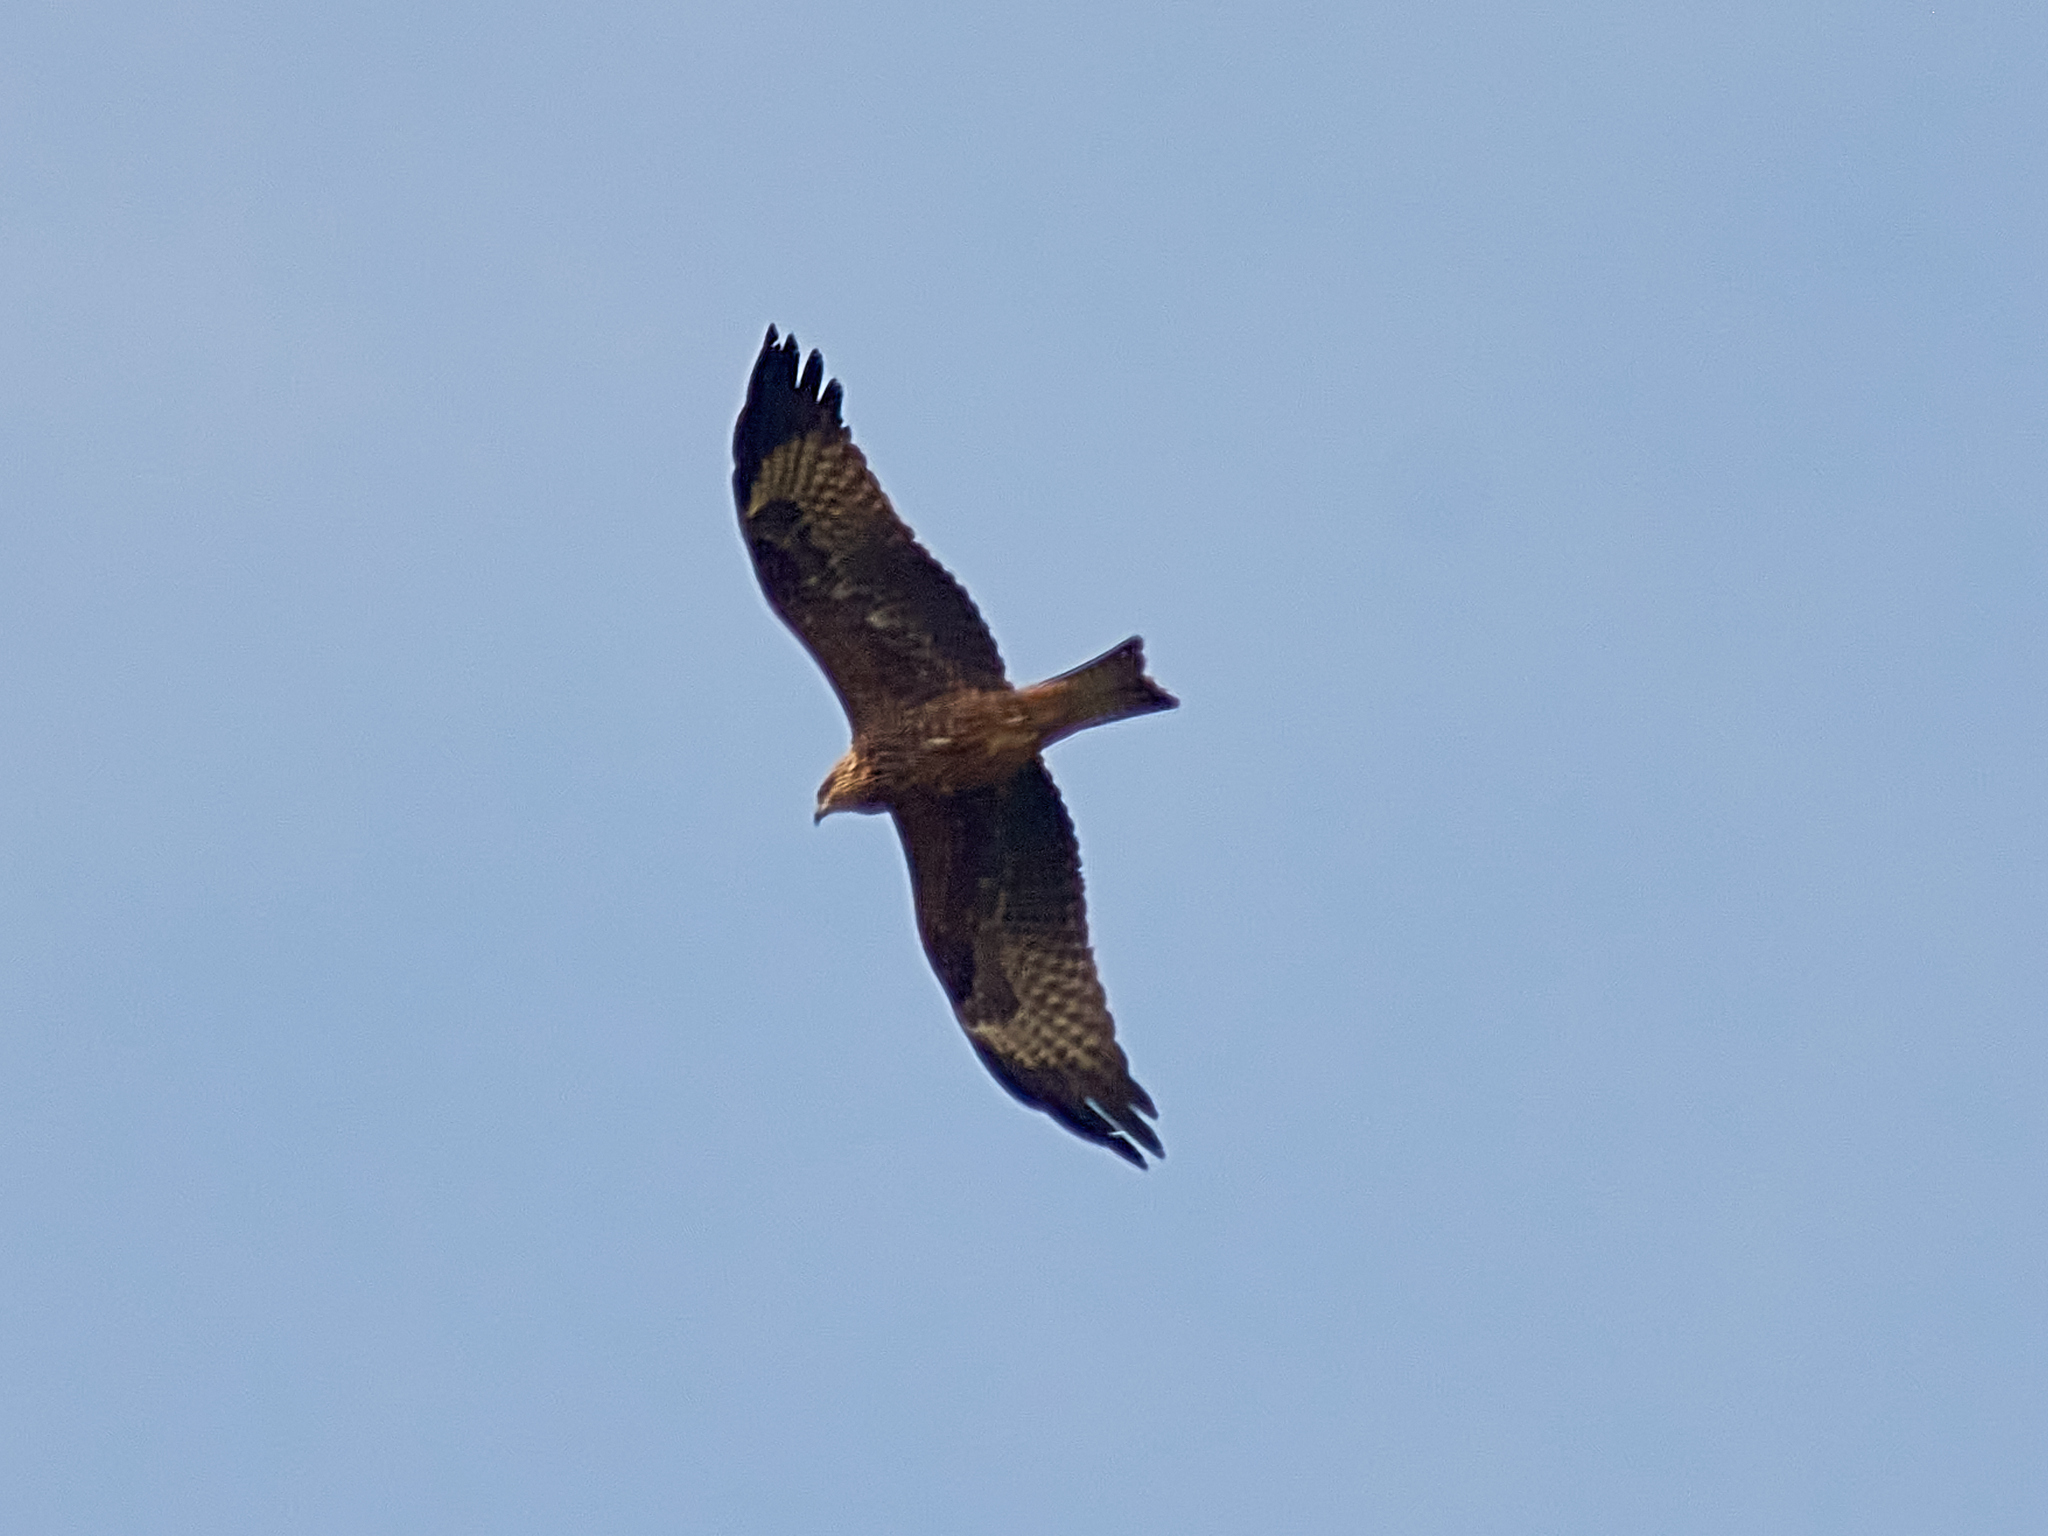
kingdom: Animalia
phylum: Chordata
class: Aves
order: Accipitriformes
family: Accipitridae
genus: Milvus
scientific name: Milvus migrans
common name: Black kite
